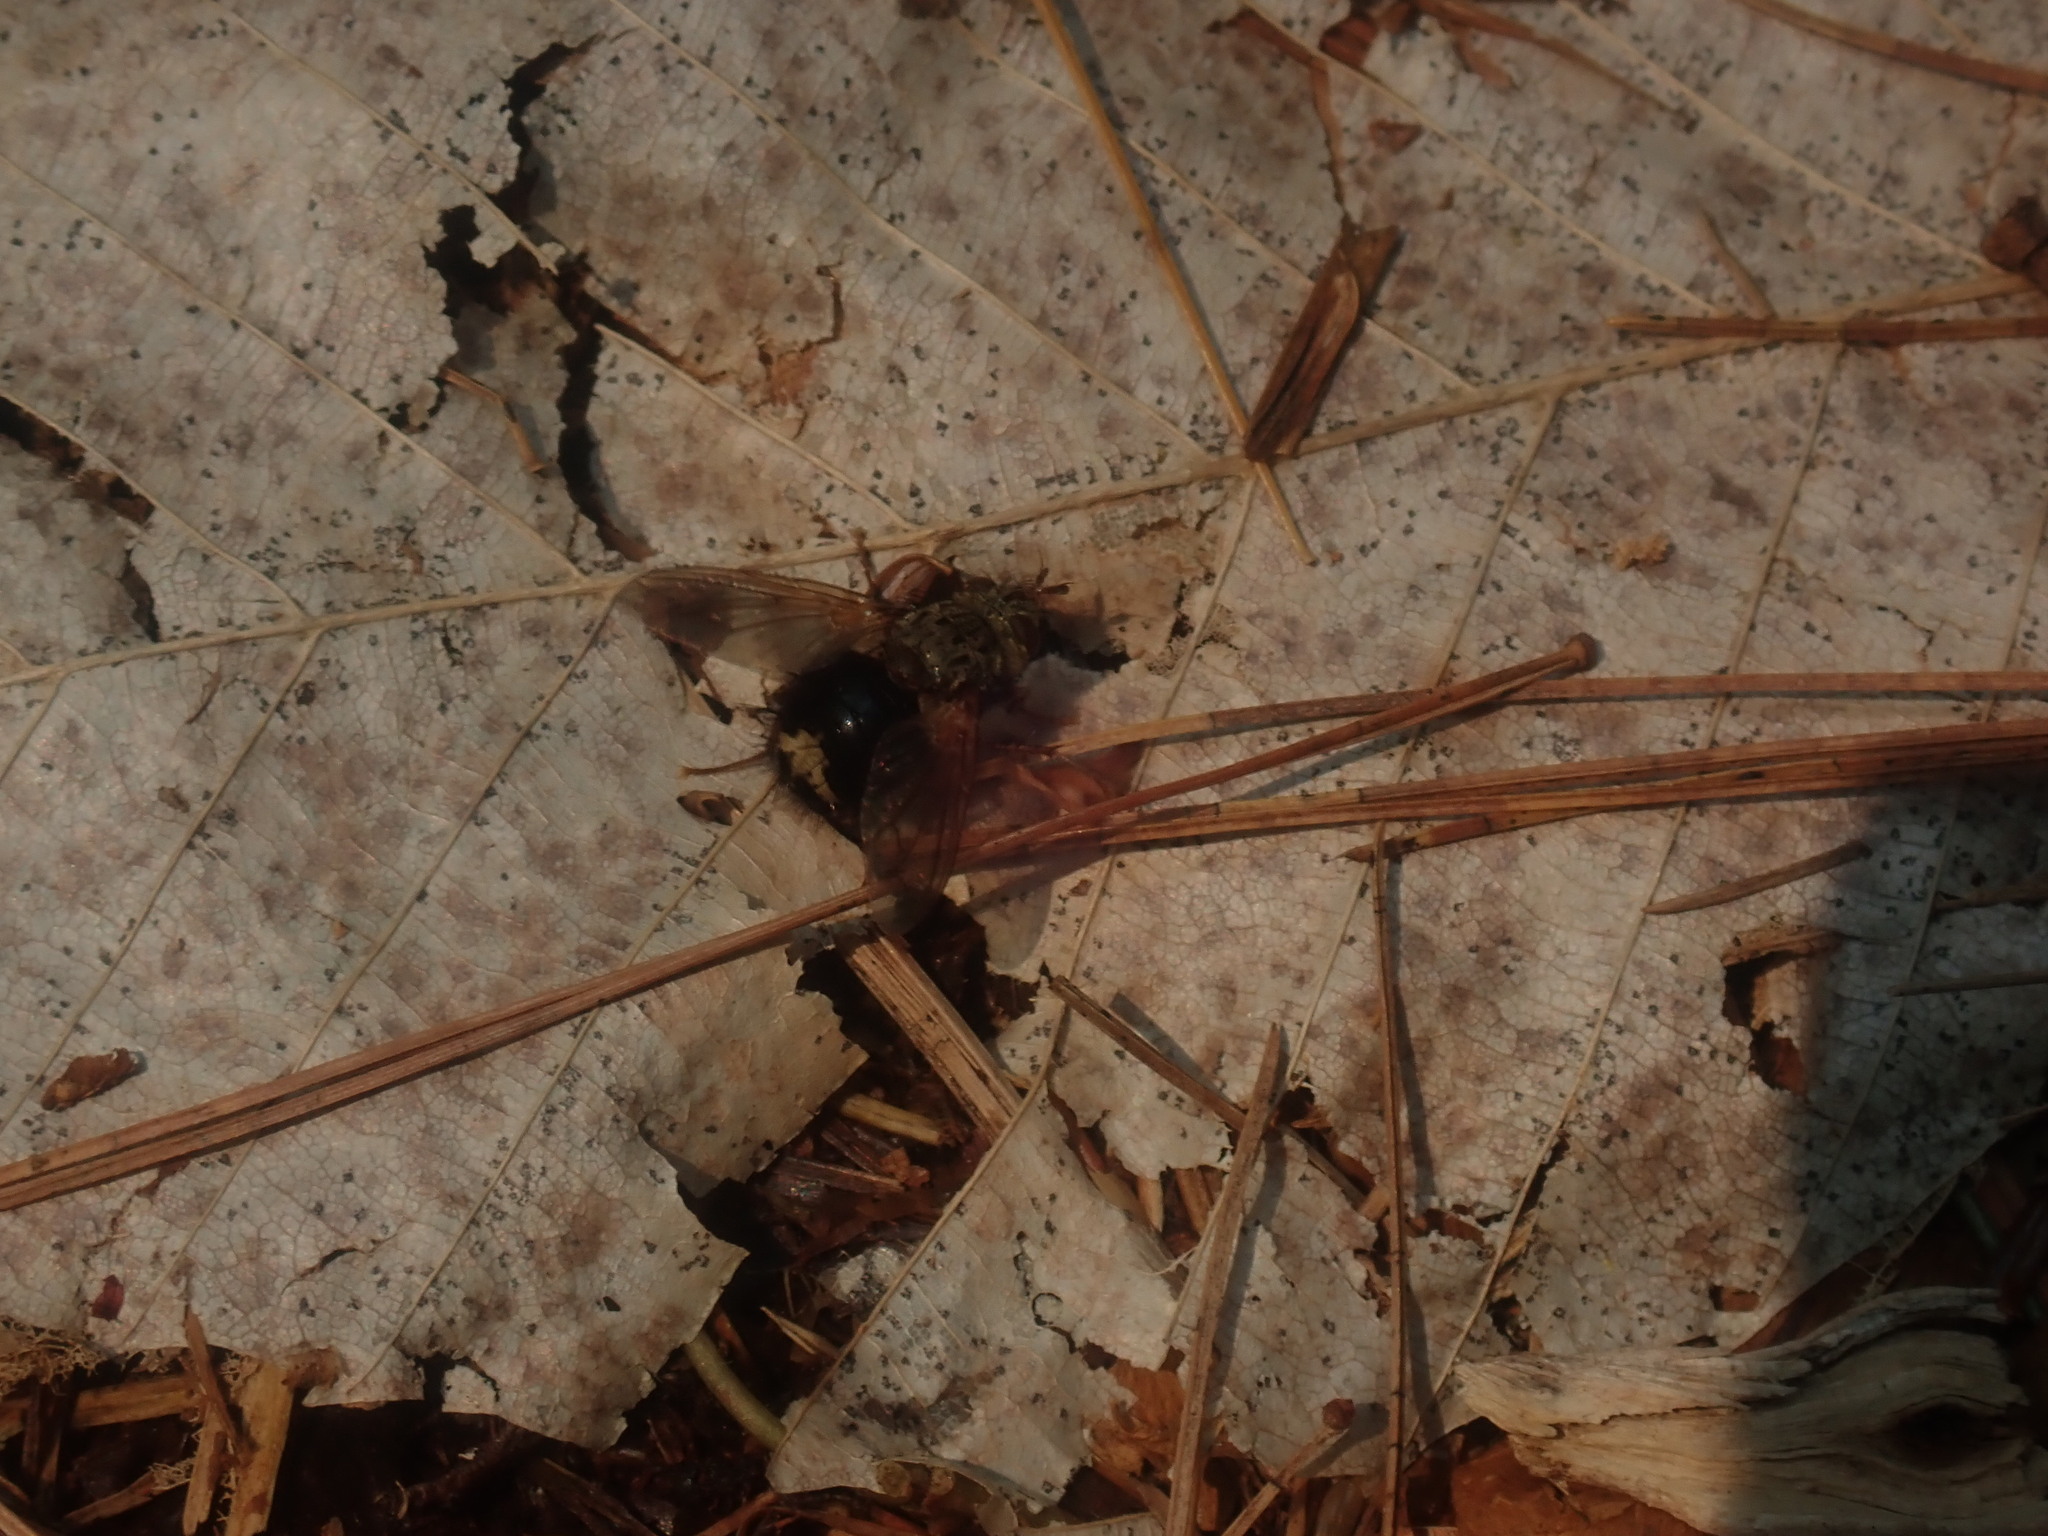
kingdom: Animalia
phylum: Arthropoda
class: Insecta
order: Diptera
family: Tachinidae
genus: Epalpus
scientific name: Epalpus signifer
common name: Early tachinid fly
